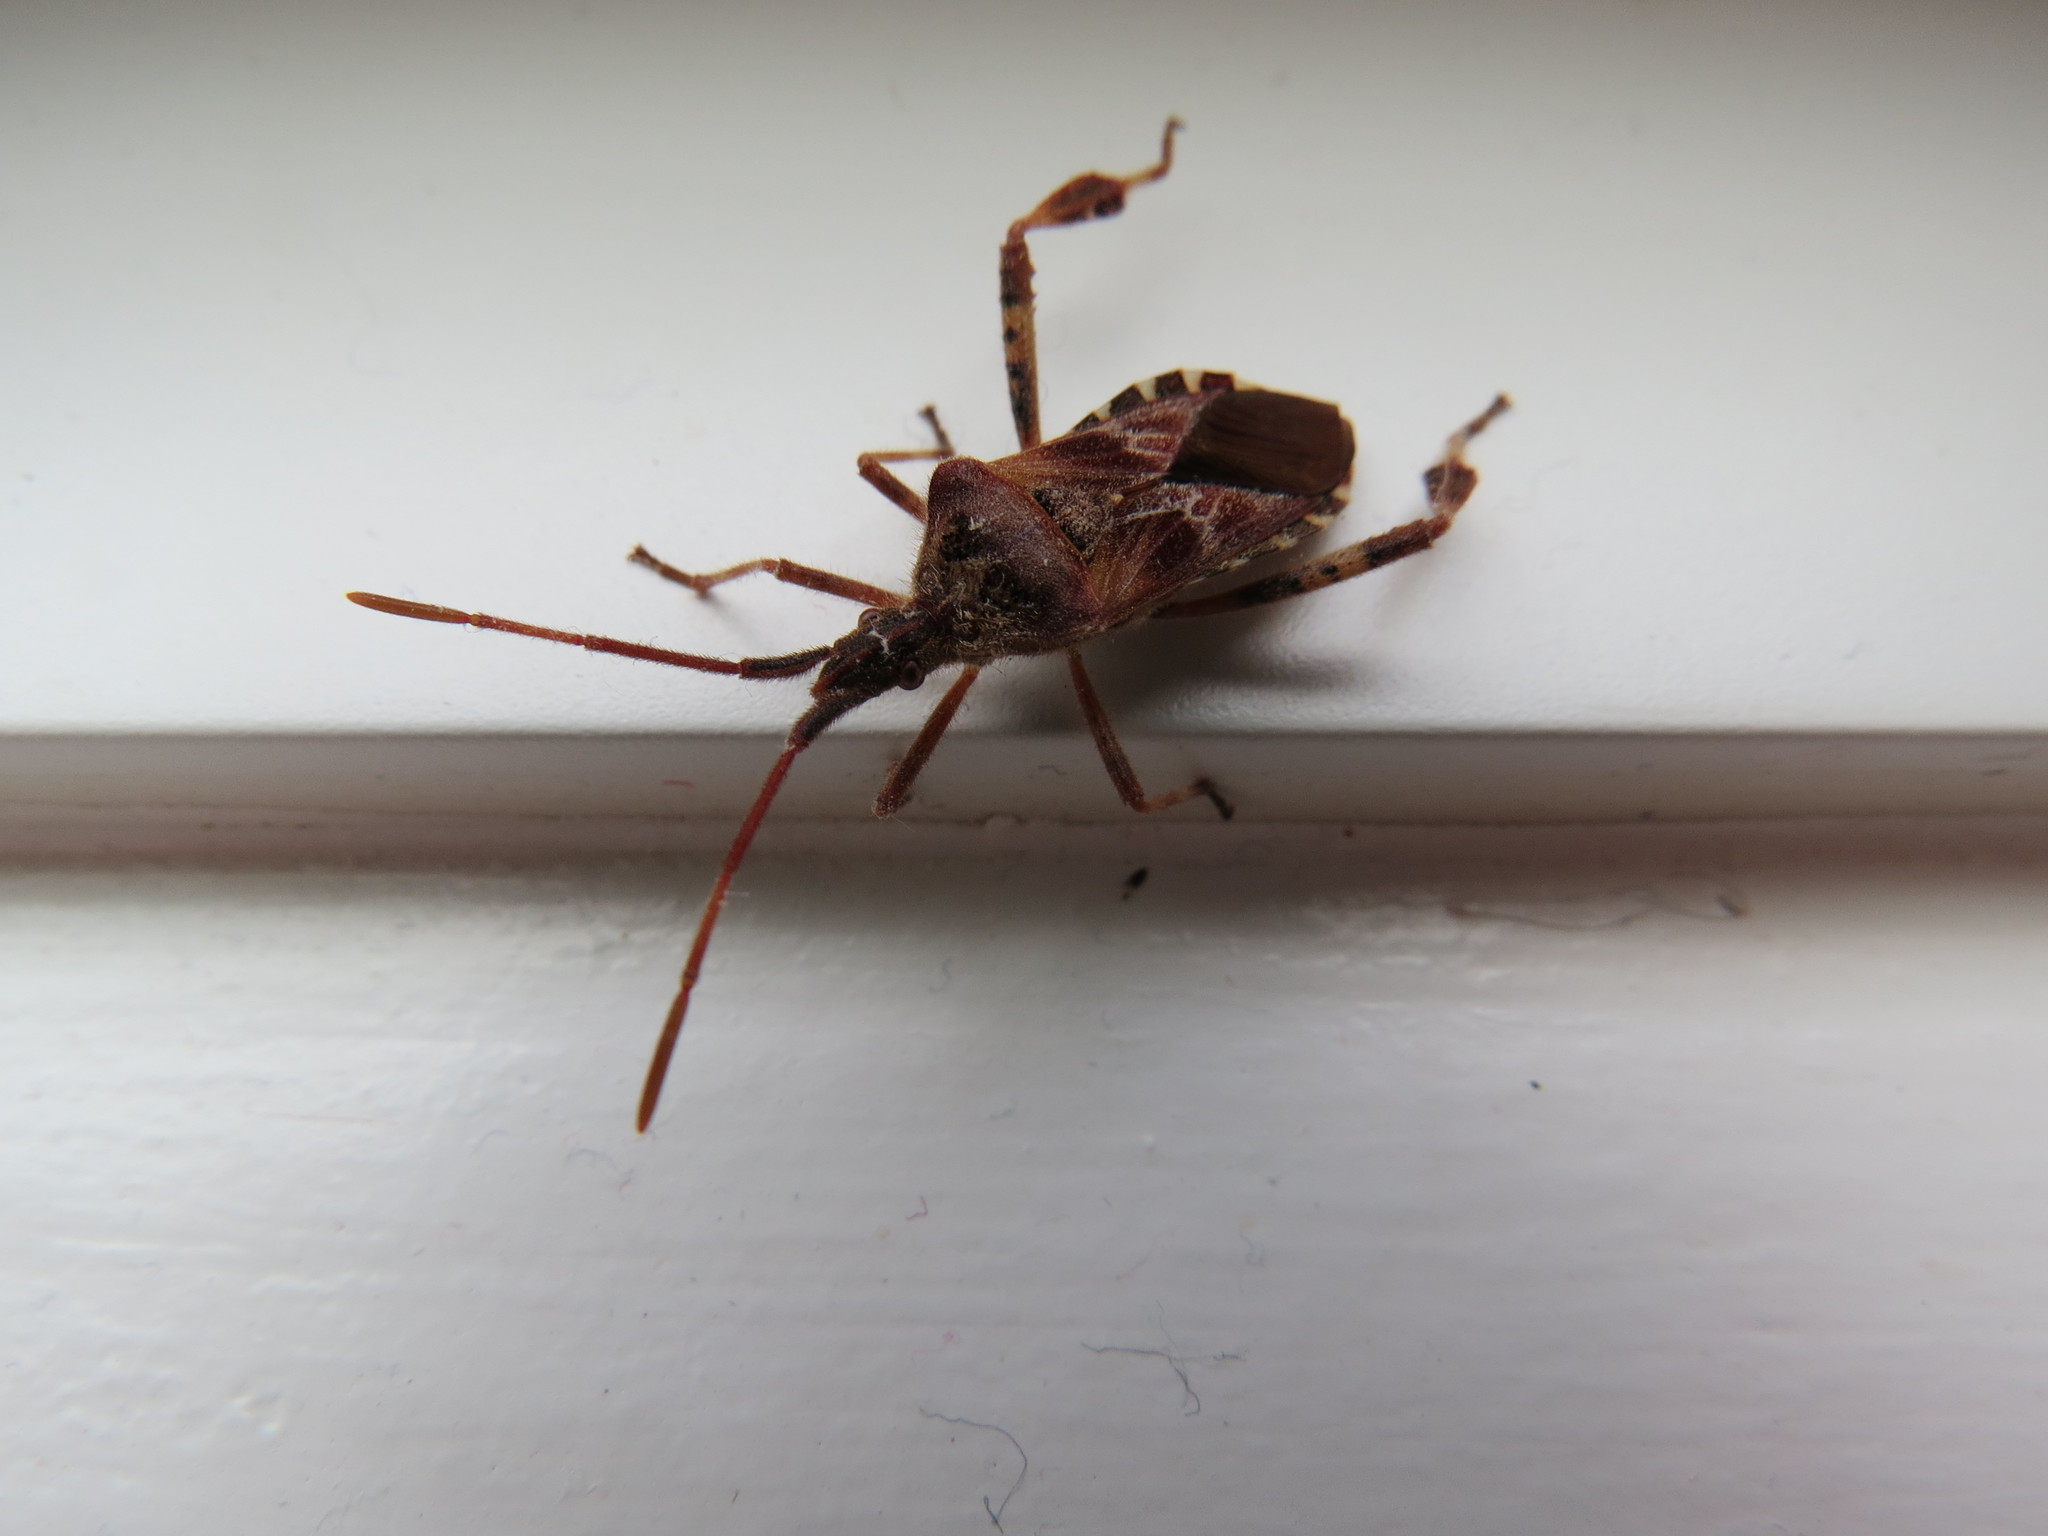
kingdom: Animalia
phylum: Arthropoda
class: Insecta
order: Hemiptera
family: Coreidae
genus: Leptoglossus
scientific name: Leptoglossus occidentalis
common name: Western conifer-seed bug
